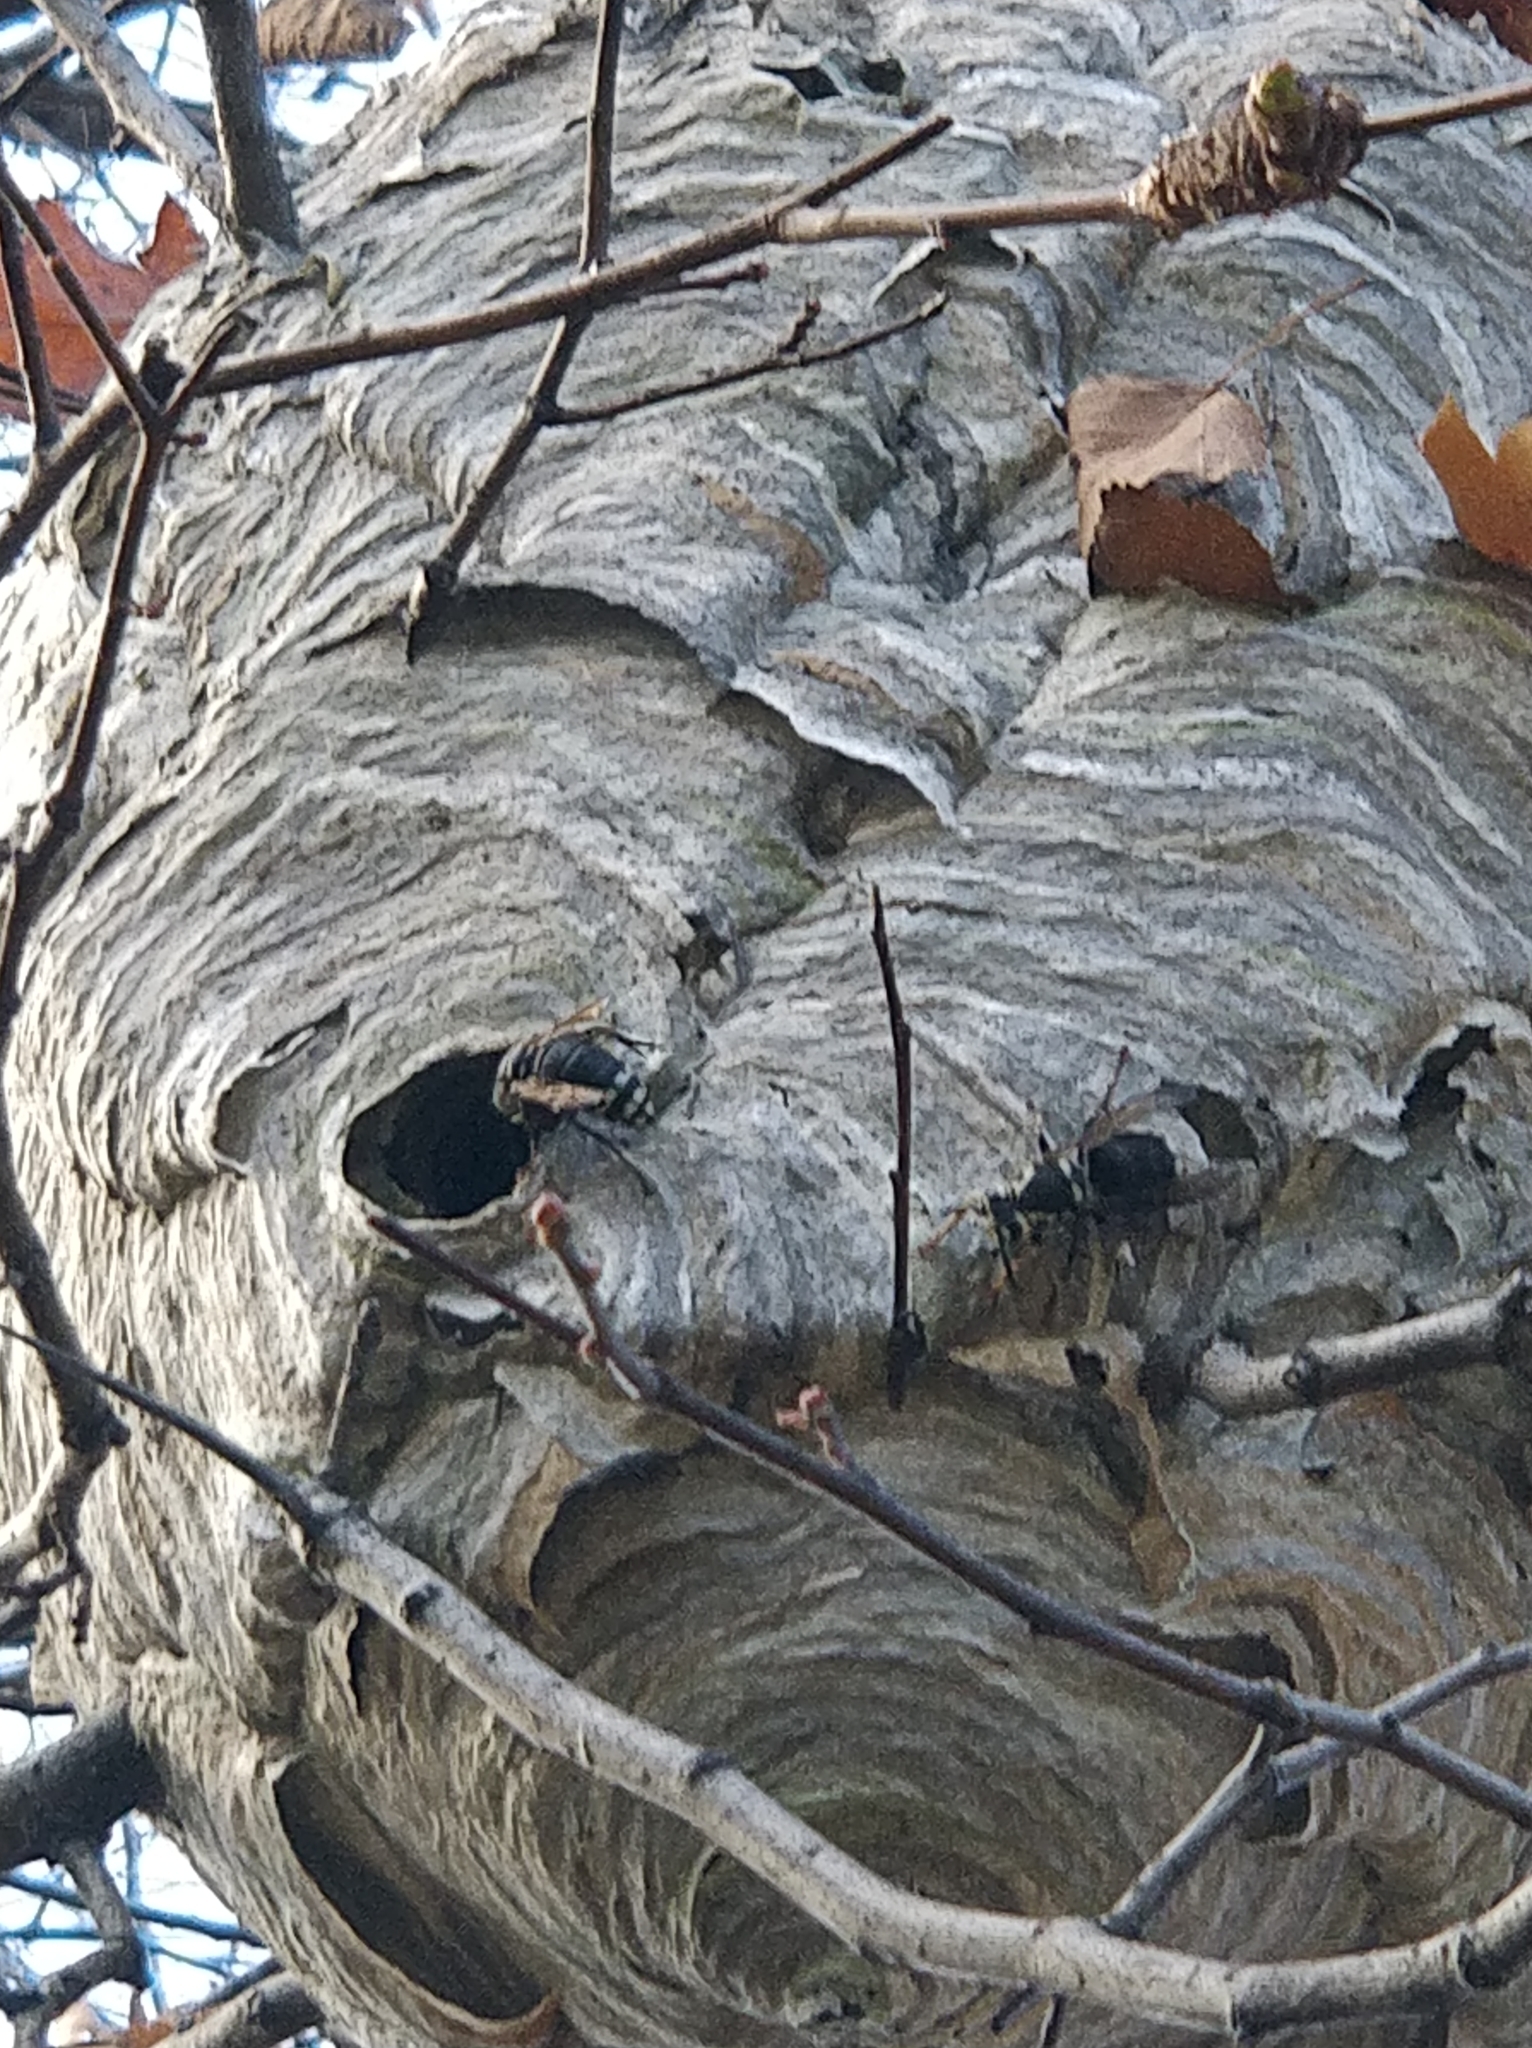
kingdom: Animalia
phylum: Arthropoda
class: Insecta
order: Hymenoptera
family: Vespidae
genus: Dolichovespula
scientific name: Dolichovespula maculata
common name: Bald-faced hornet
